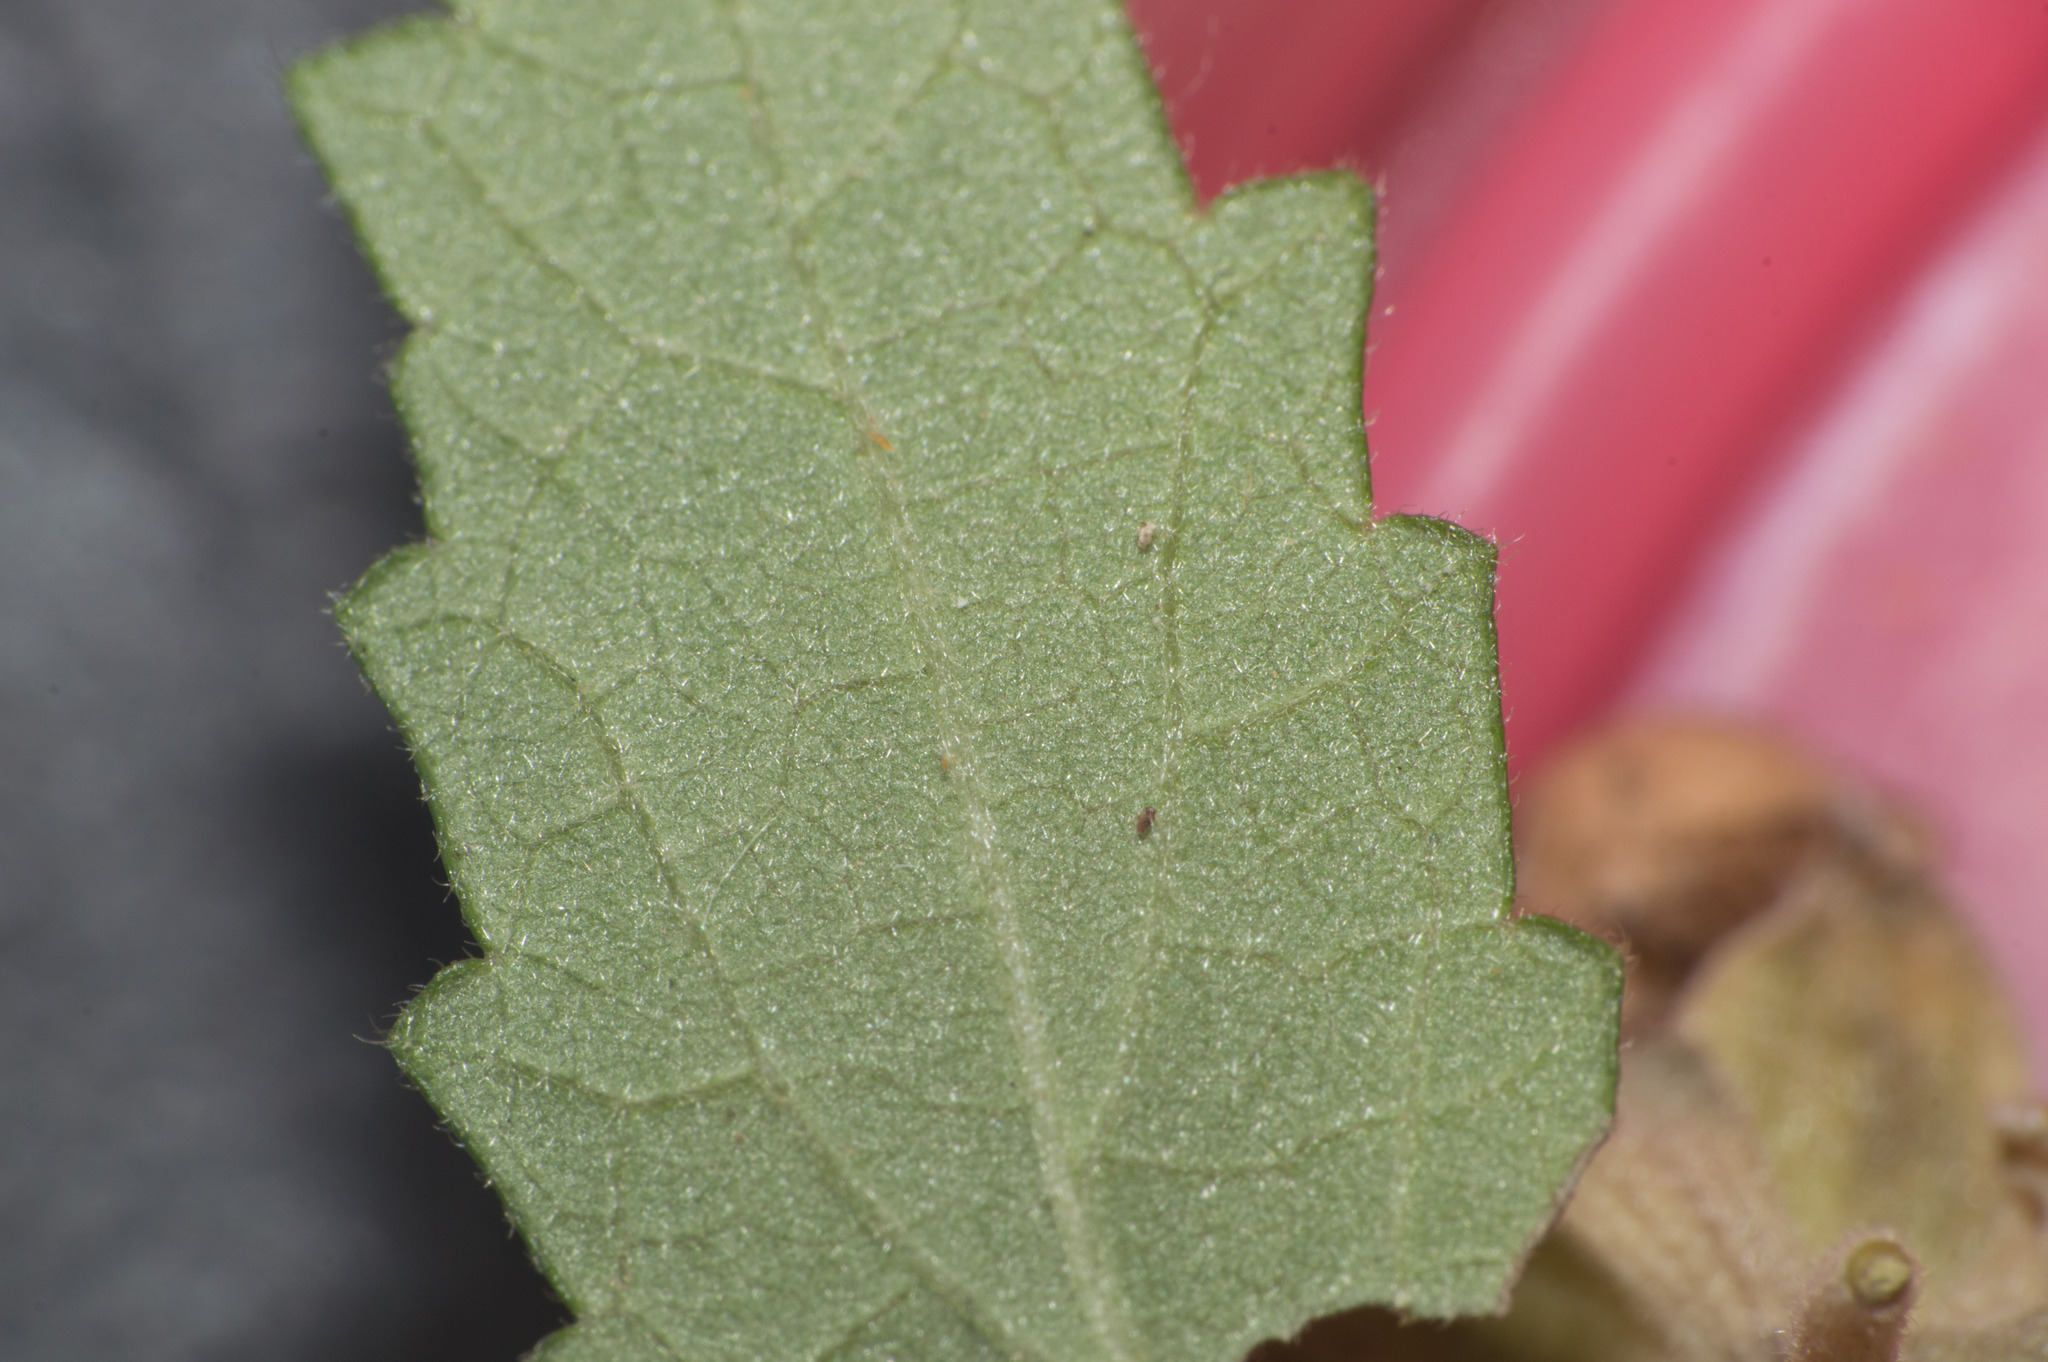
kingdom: Plantae
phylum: Tracheophyta
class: Magnoliopsida
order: Malvales
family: Malvaceae
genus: Pavonia
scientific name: Pavonia hastata
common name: Spearleaf swampmallow
